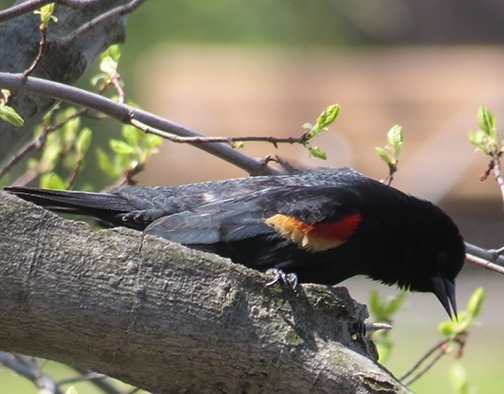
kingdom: Animalia
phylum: Chordata
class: Aves
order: Passeriformes
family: Icteridae
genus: Agelaius
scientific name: Agelaius phoeniceus
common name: Red-winged blackbird
